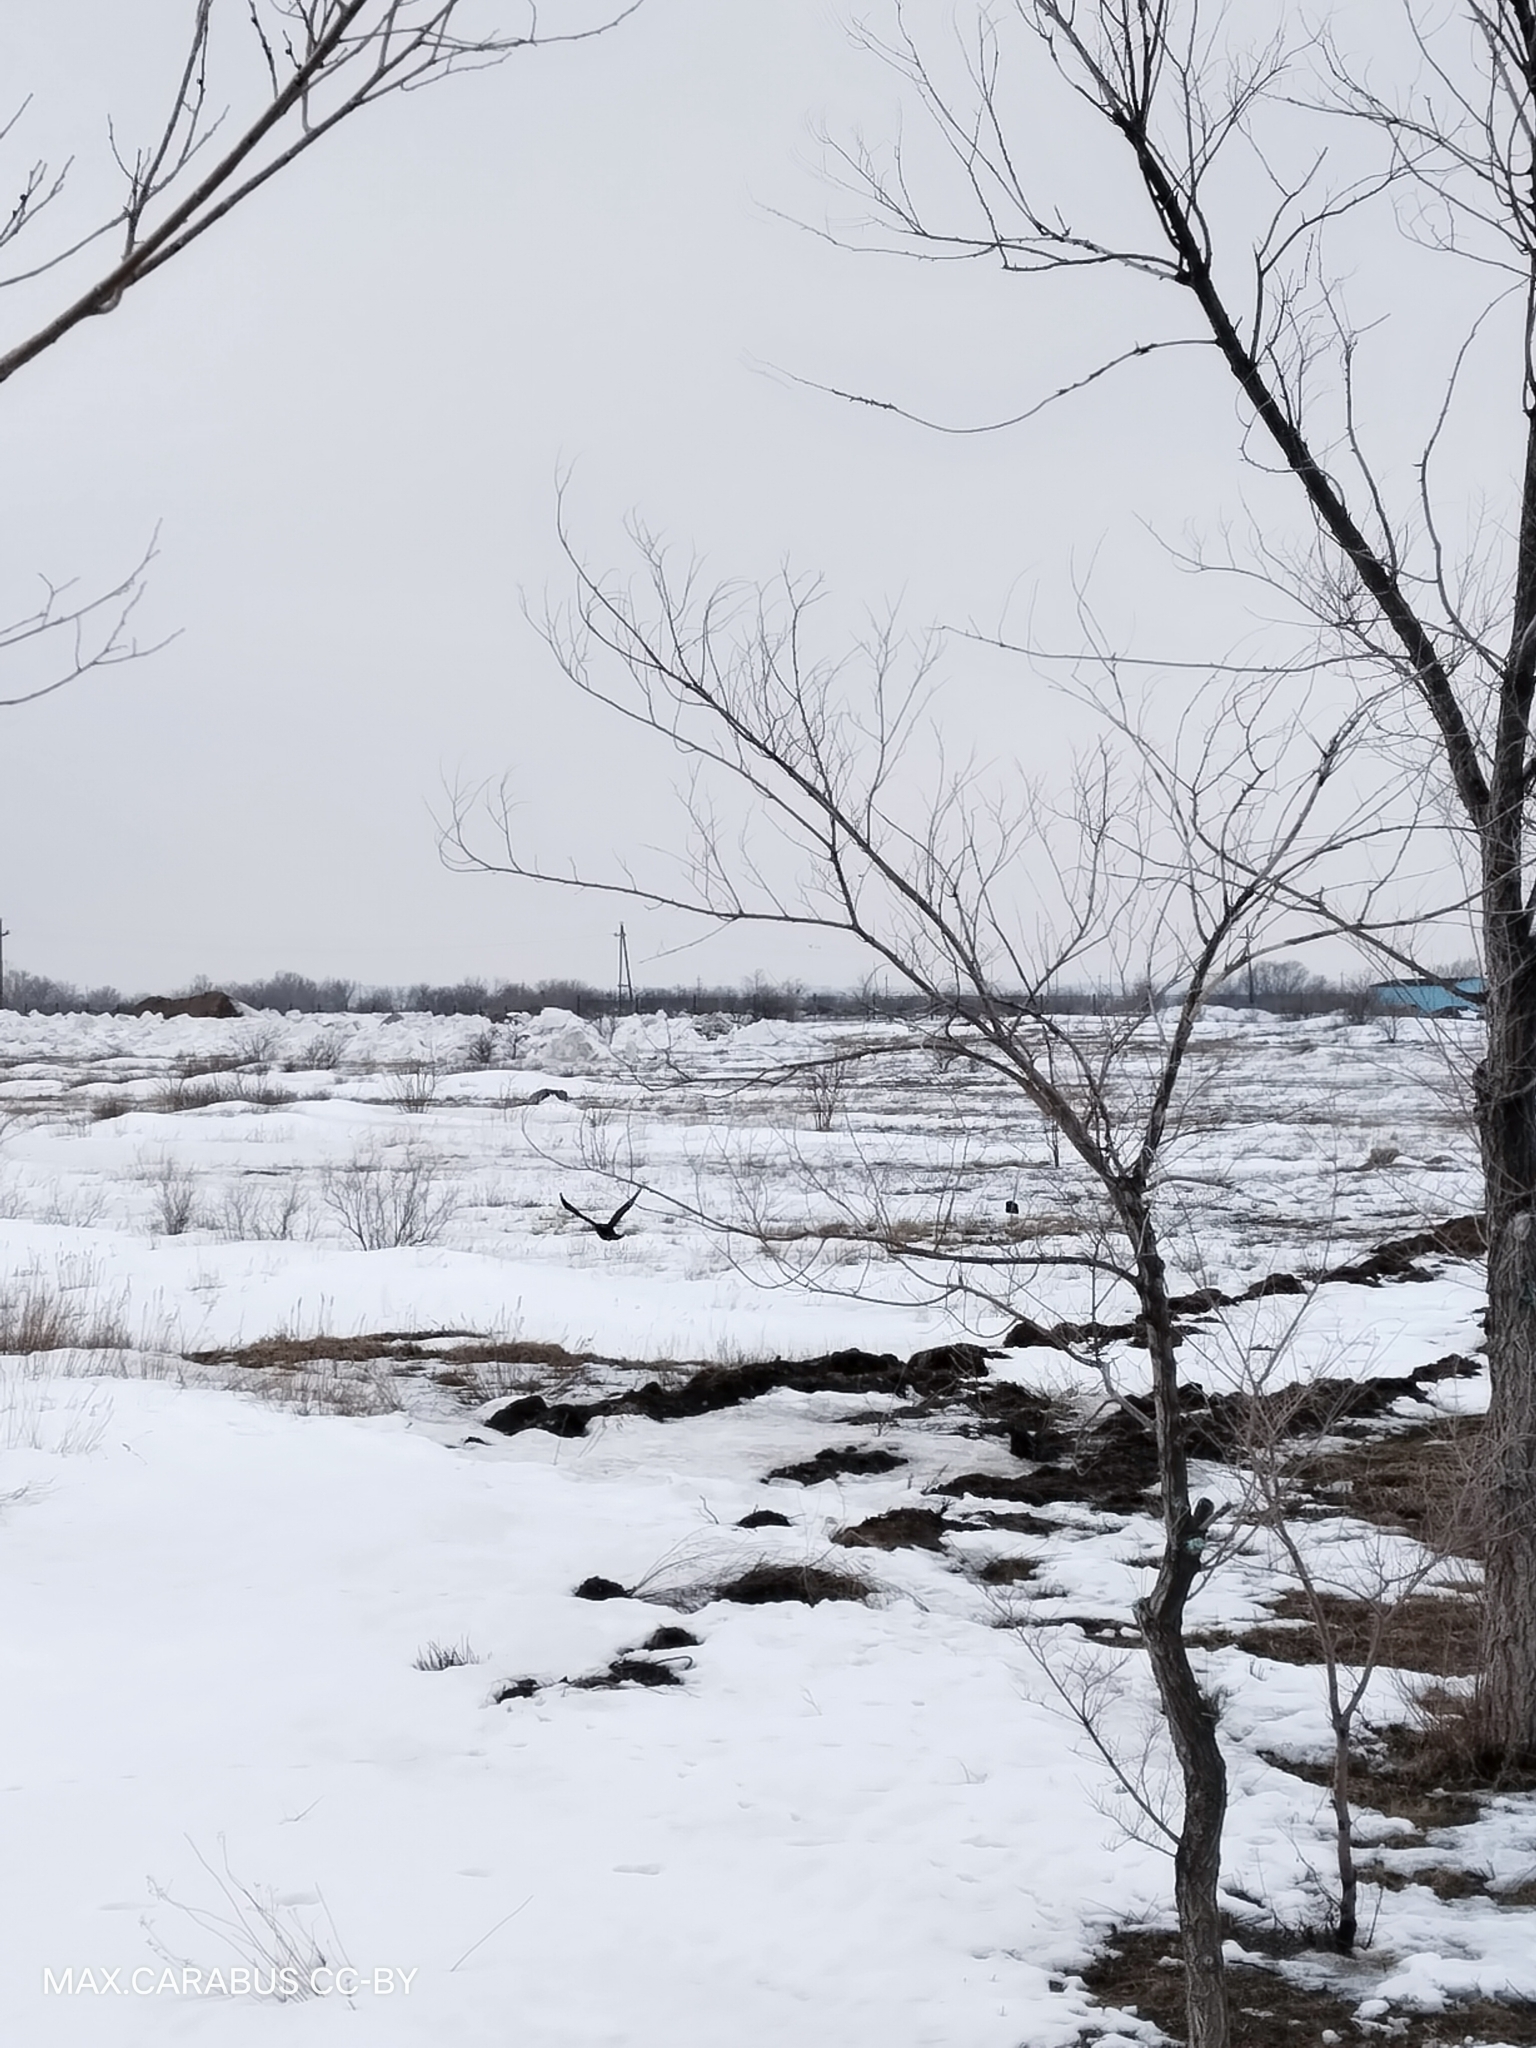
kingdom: Animalia
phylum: Chordata
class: Aves
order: Passeriformes
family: Corvidae
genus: Corvus
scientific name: Corvus frugilegus
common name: Rook
